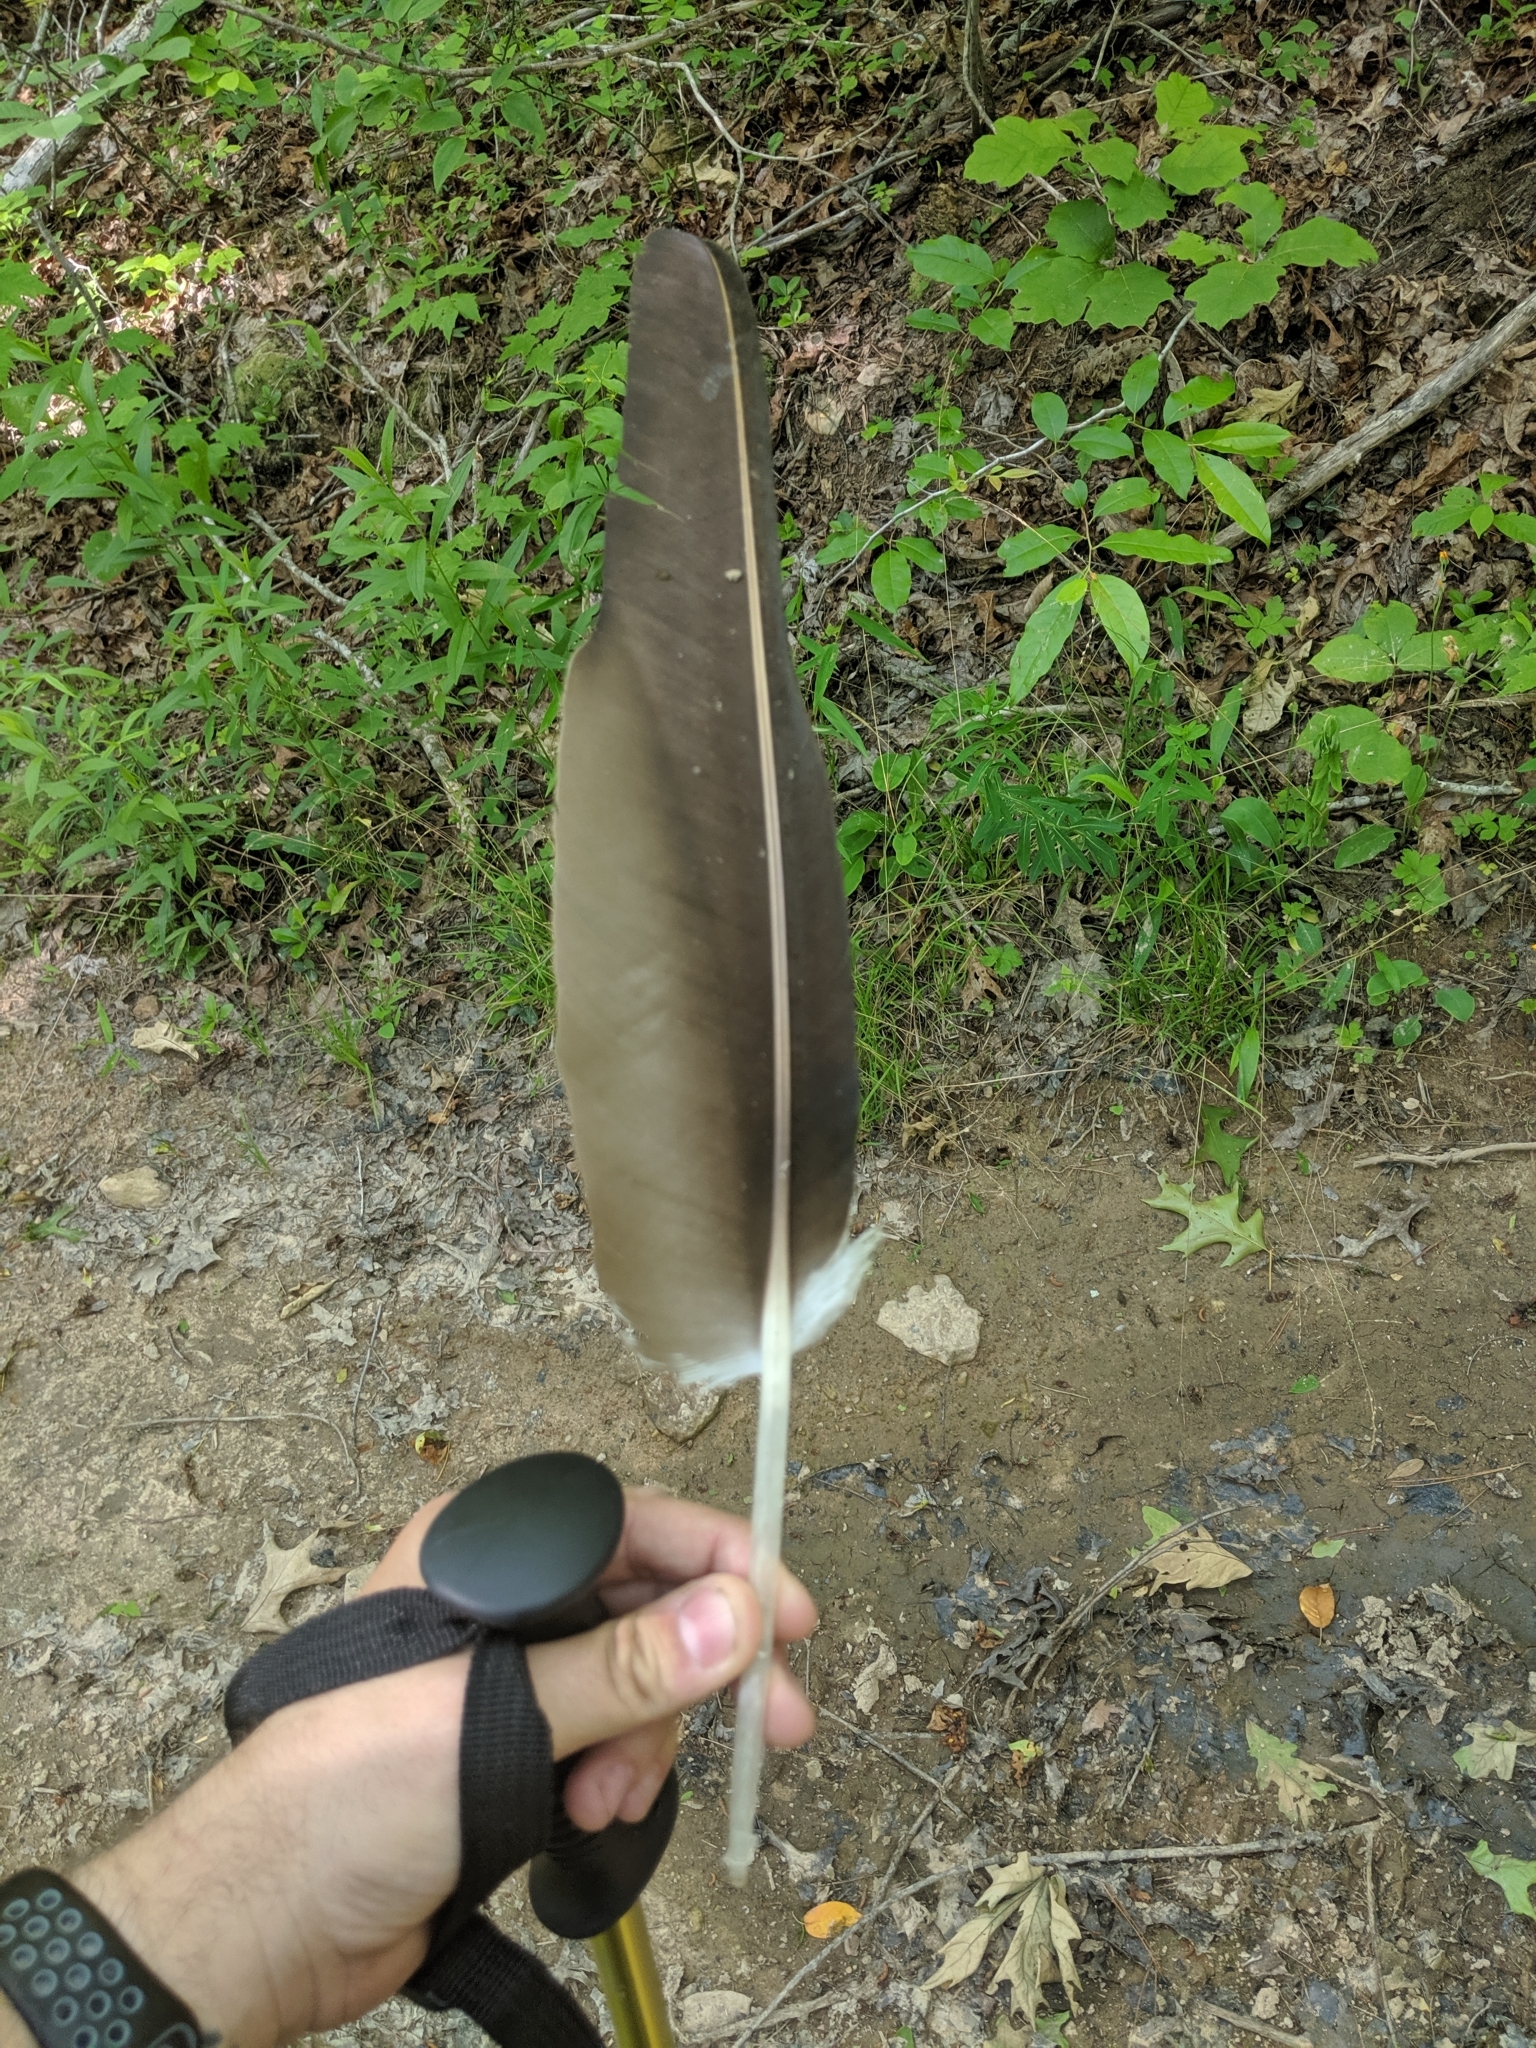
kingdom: Animalia
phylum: Chordata
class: Aves
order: Accipitriformes
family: Cathartidae
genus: Cathartes
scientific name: Cathartes aura
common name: Turkey vulture
